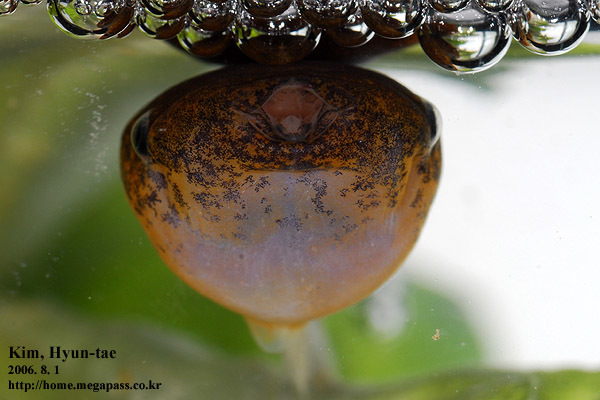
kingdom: Animalia
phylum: Chordata
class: Amphibia
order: Anura
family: Microhylidae
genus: Kaloula
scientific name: Kaloula borealis
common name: Boreal digging frog
